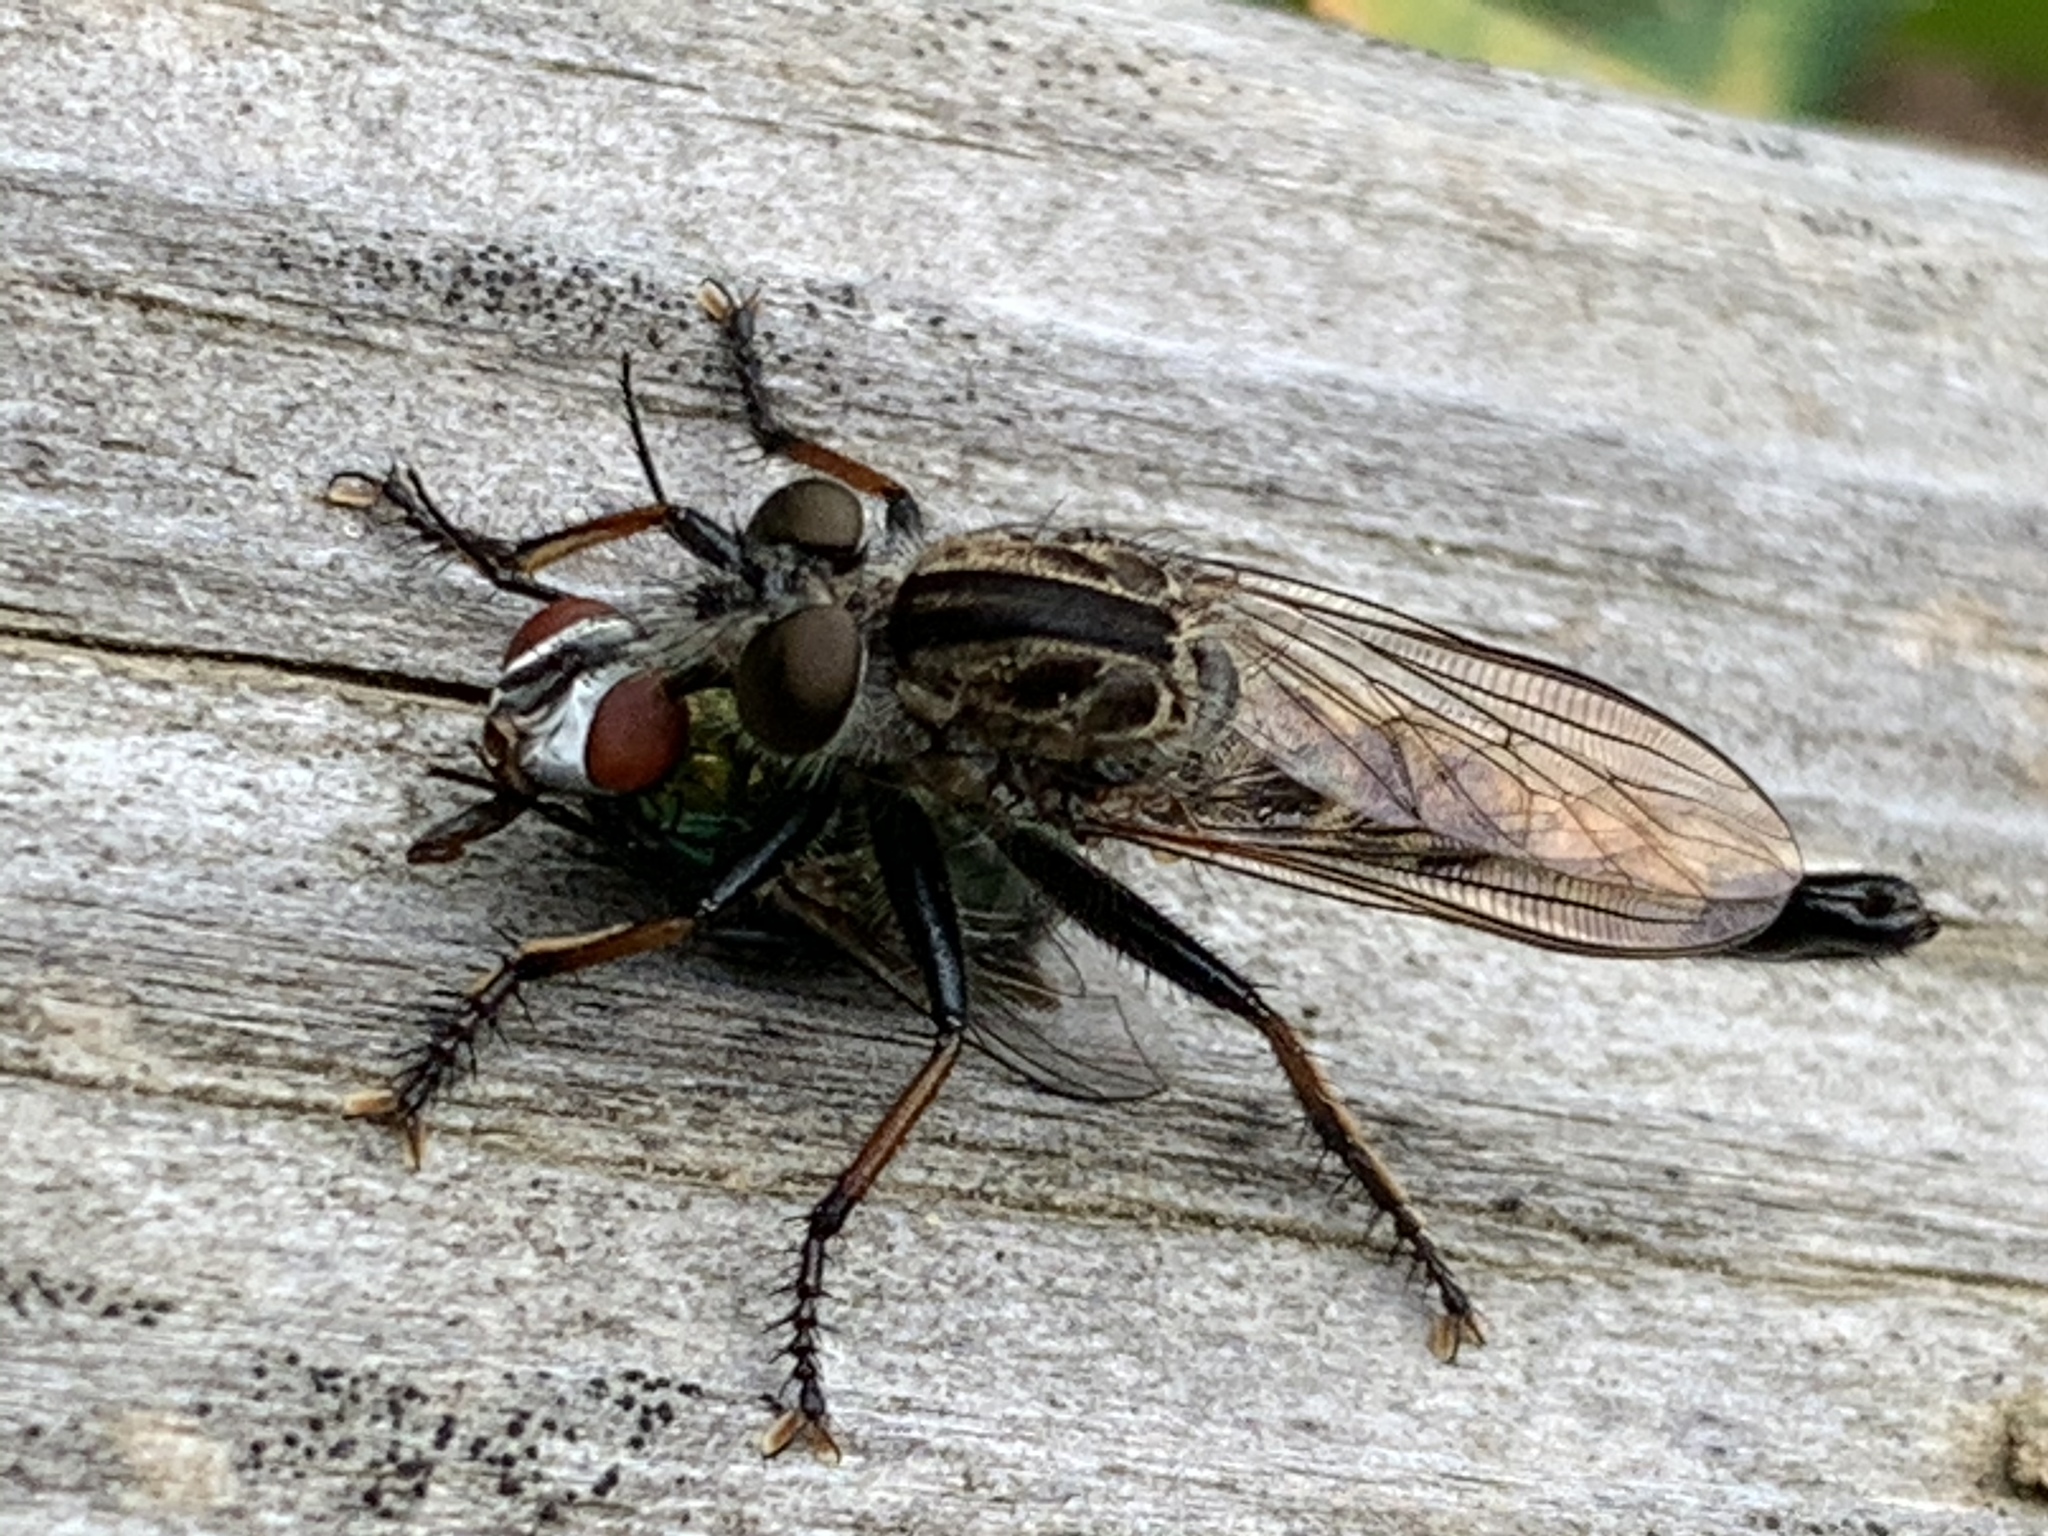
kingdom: Animalia
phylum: Arthropoda
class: Insecta
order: Diptera
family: Asilidae
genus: Efferia
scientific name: Efferia aestuans
